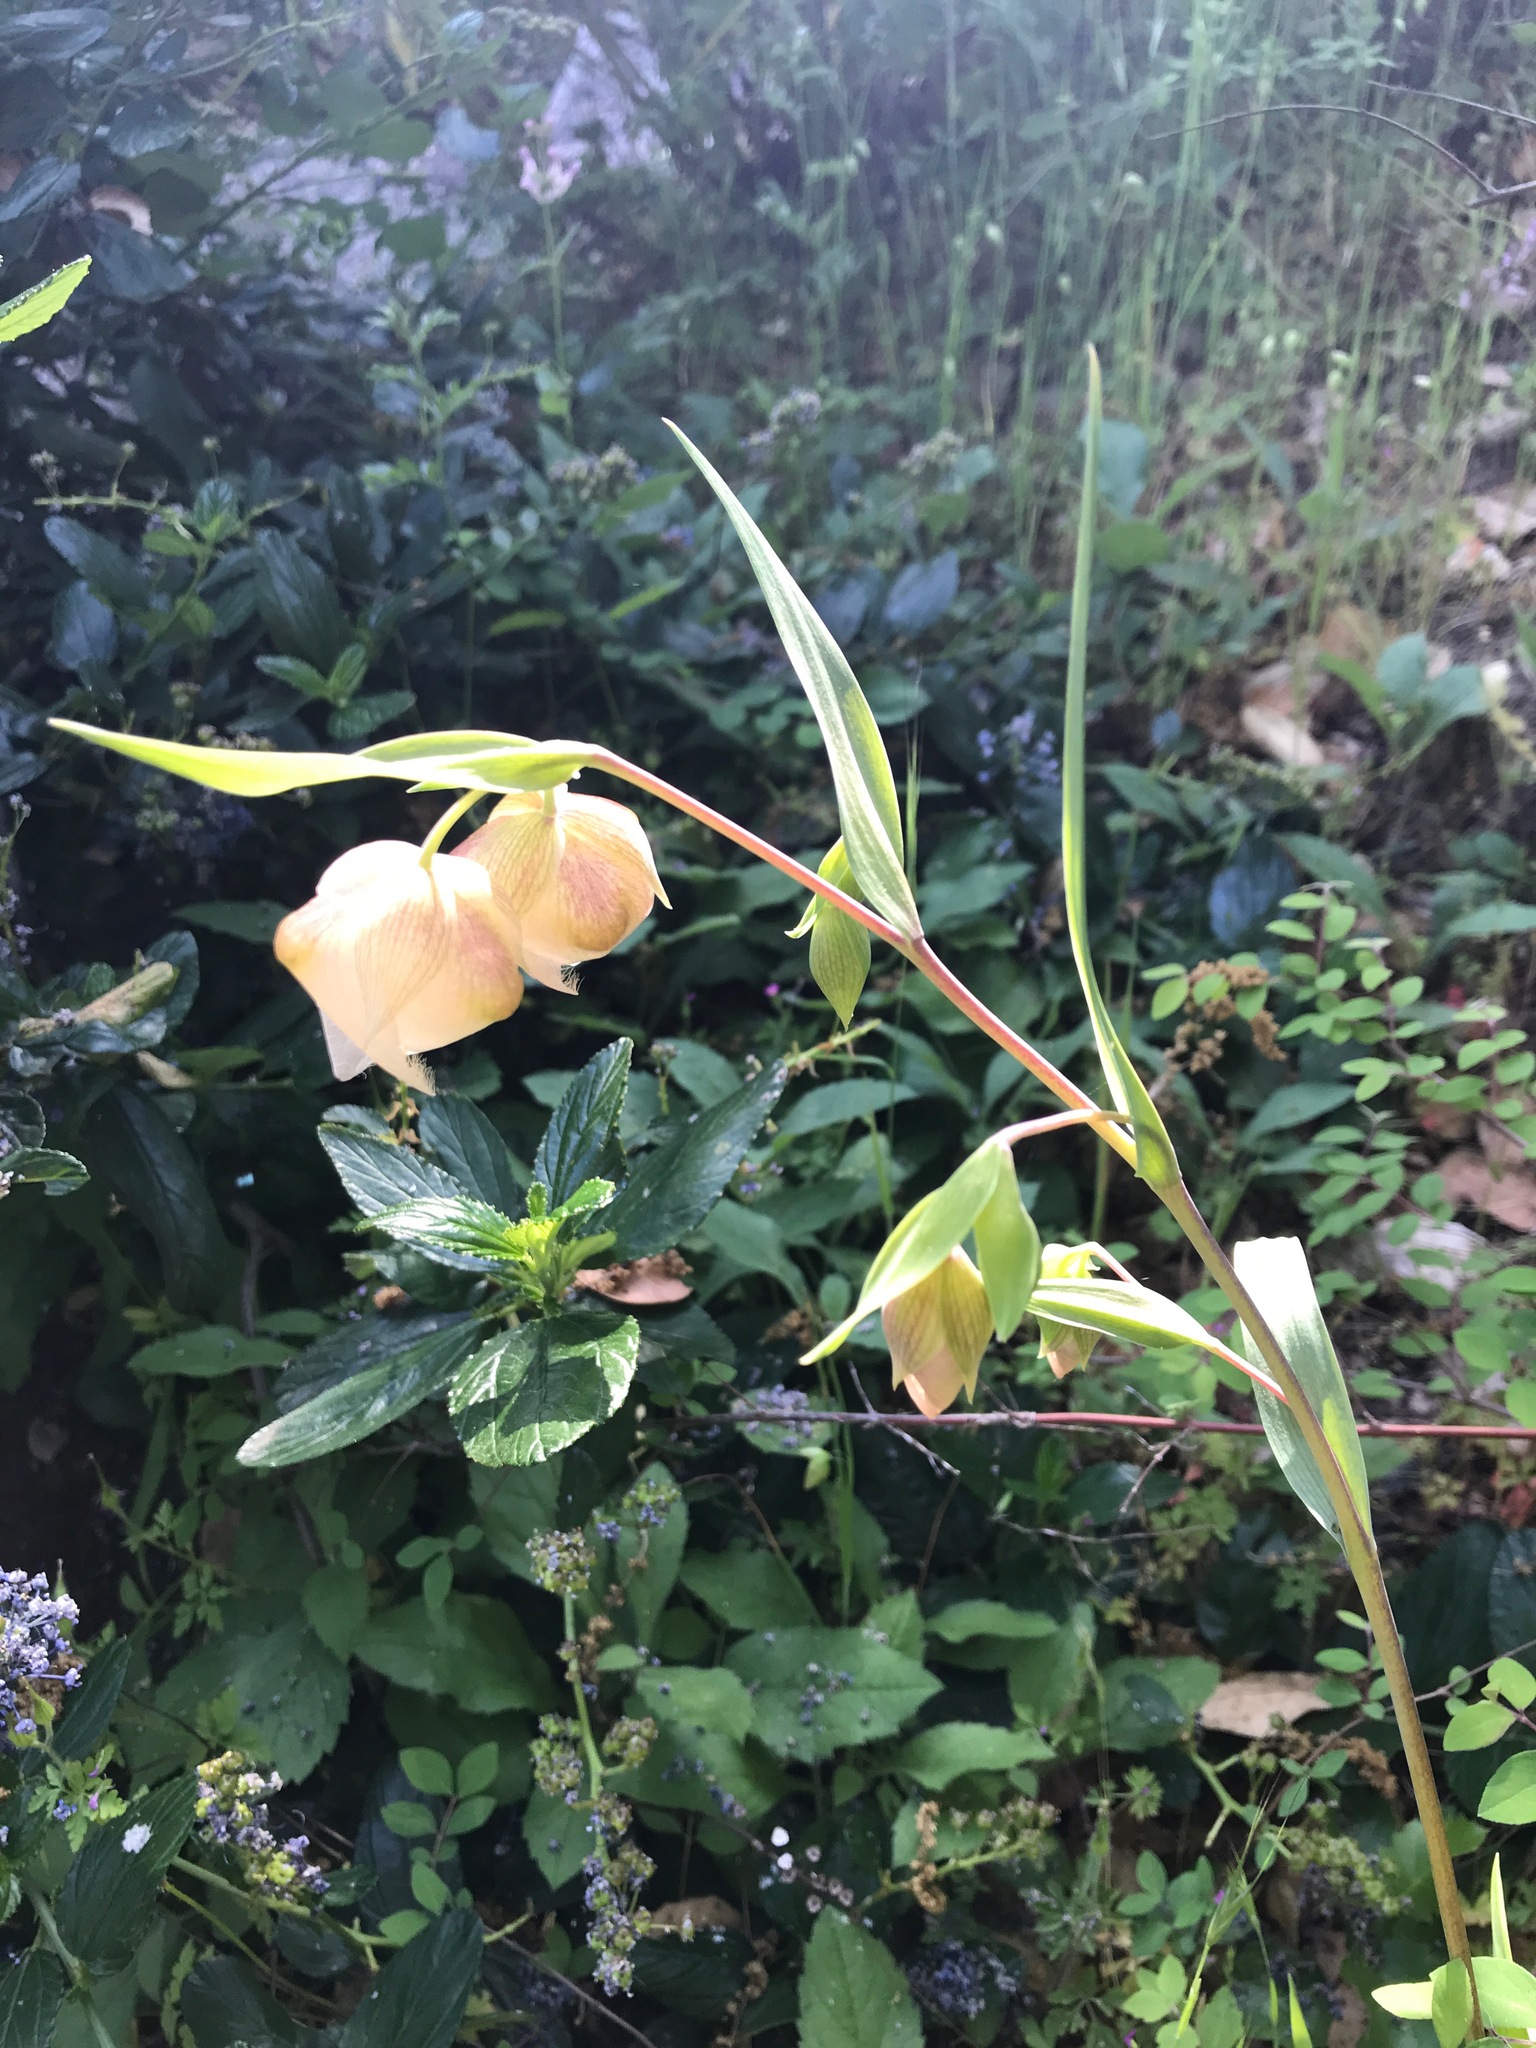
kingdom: Plantae
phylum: Tracheophyta
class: Liliopsida
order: Liliales
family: Liliaceae
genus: Calochortus
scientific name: Calochortus albus
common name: Fairy-lantern
